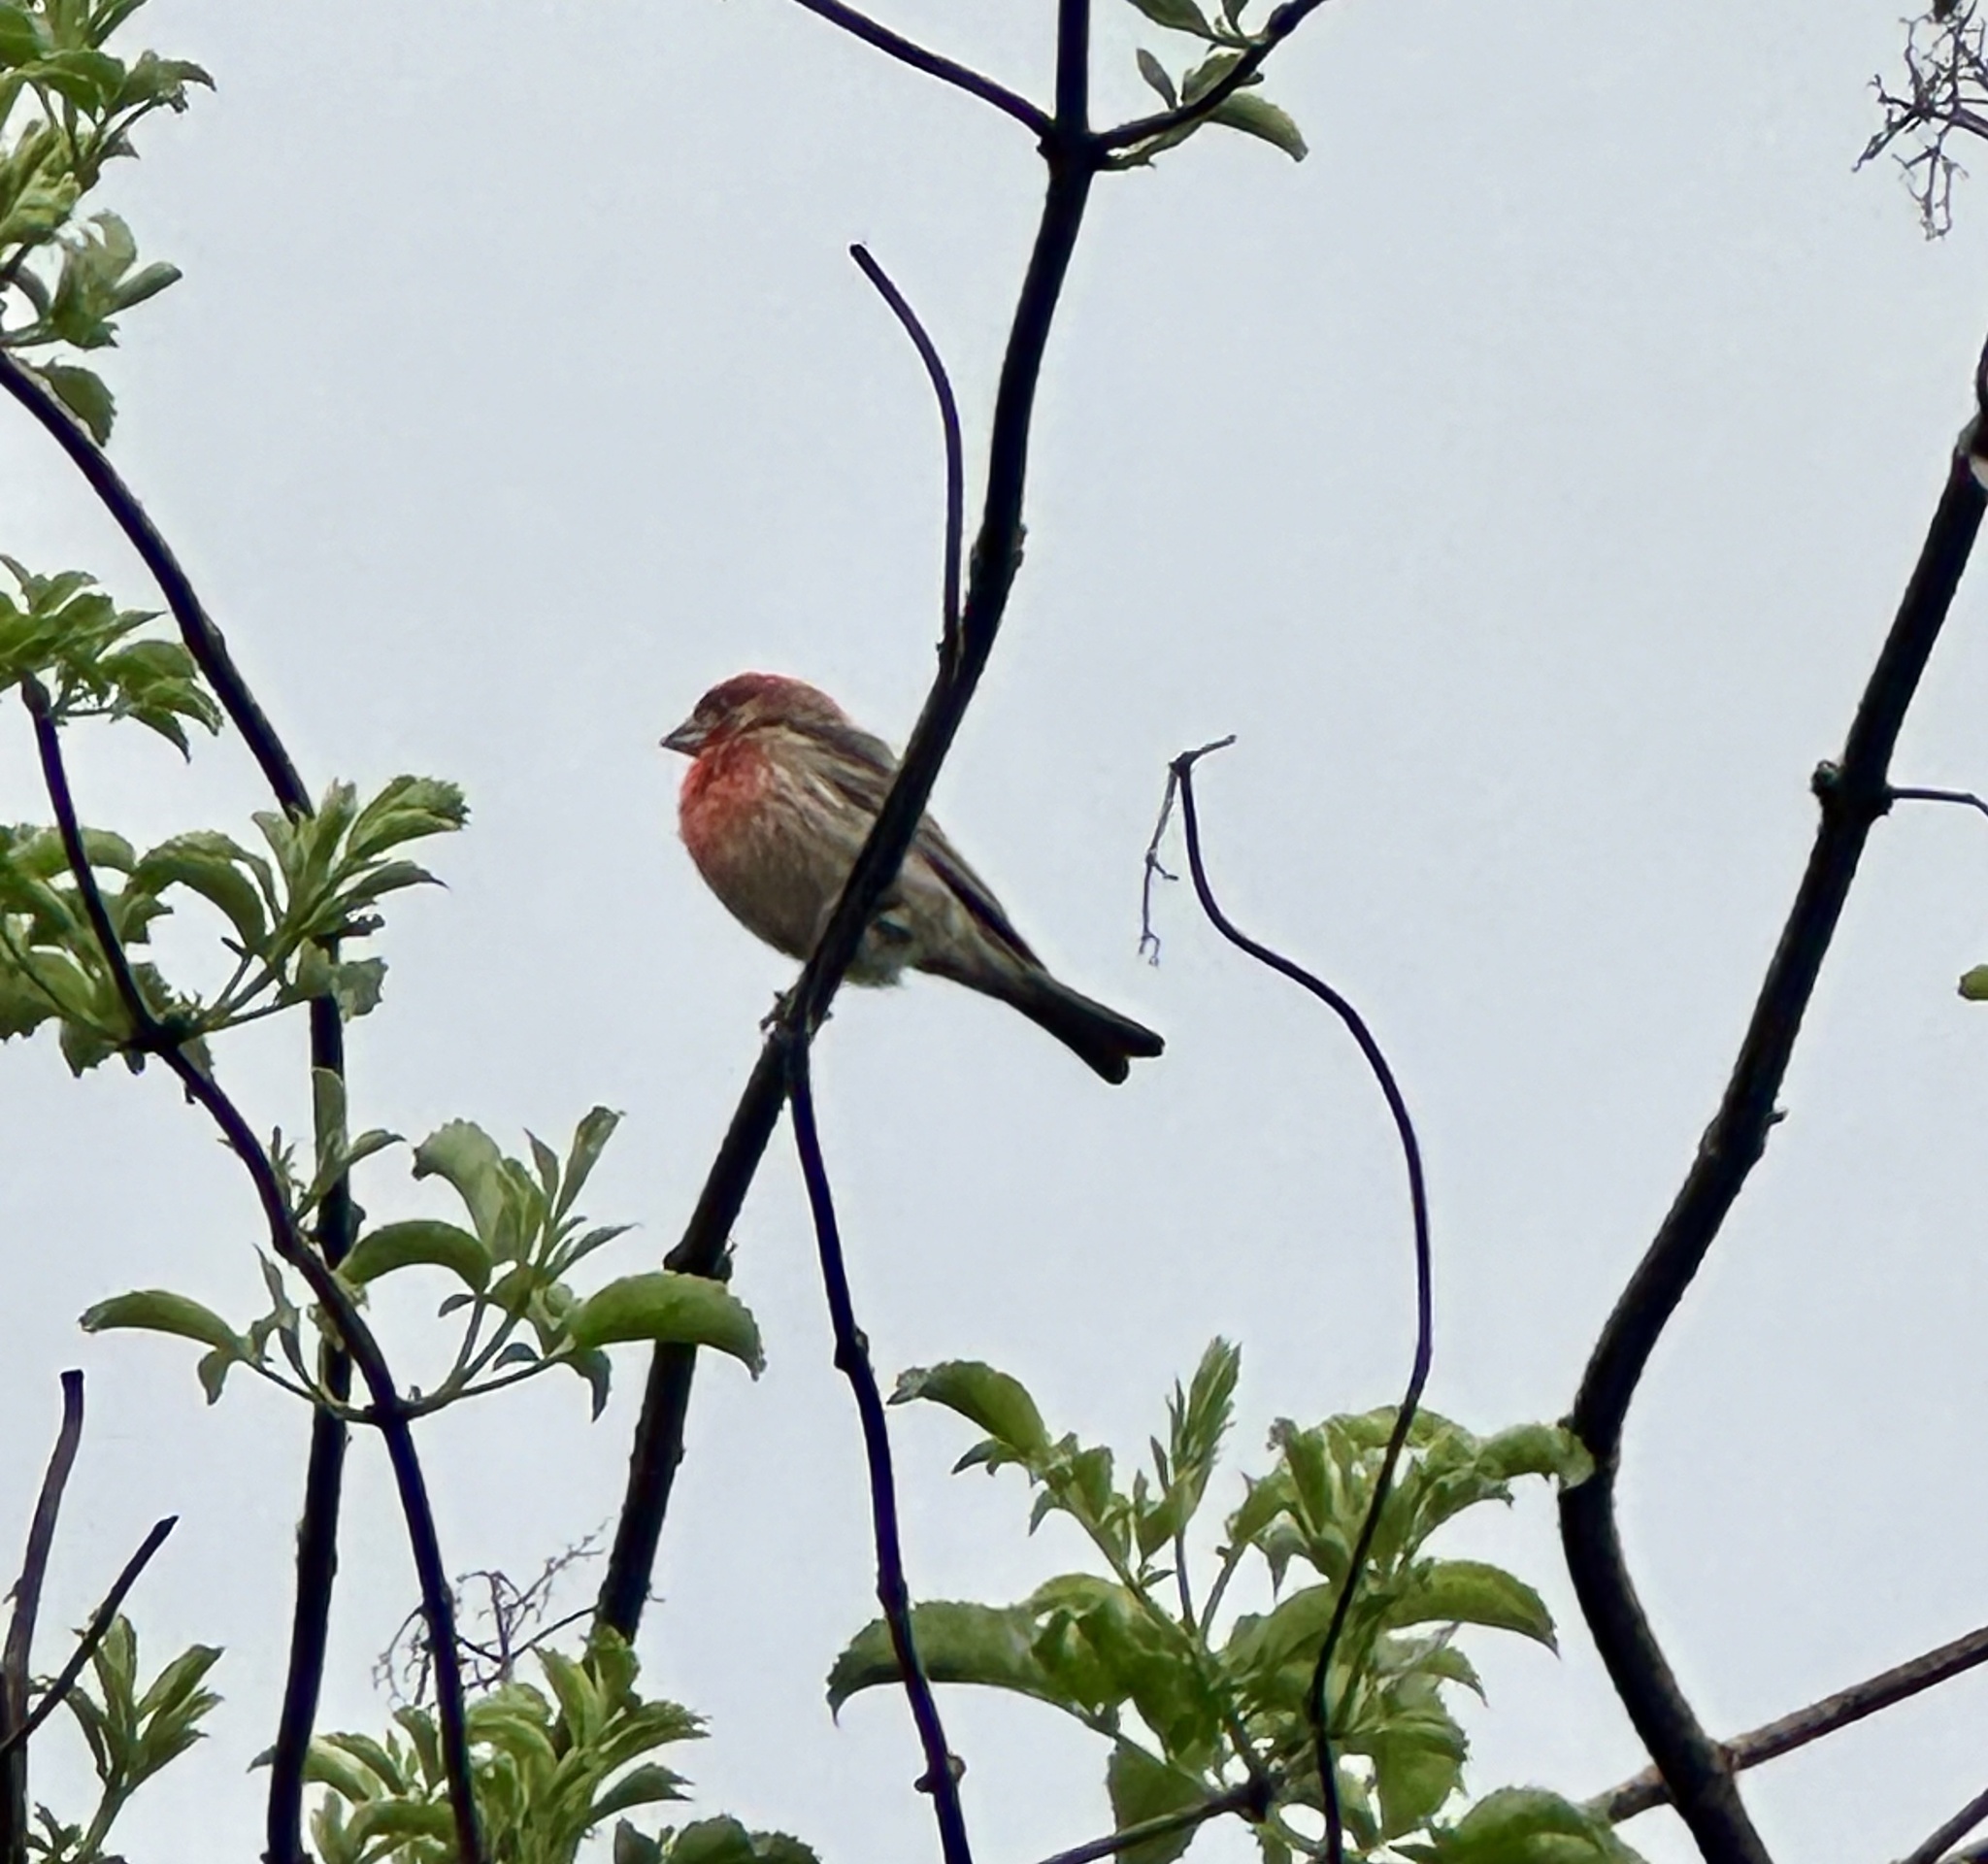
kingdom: Animalia
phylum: Chordata
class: Aves
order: Passeriformes
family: Fringillidae
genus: Haemorhous
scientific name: Haemorhous mexicanus
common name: House finch
